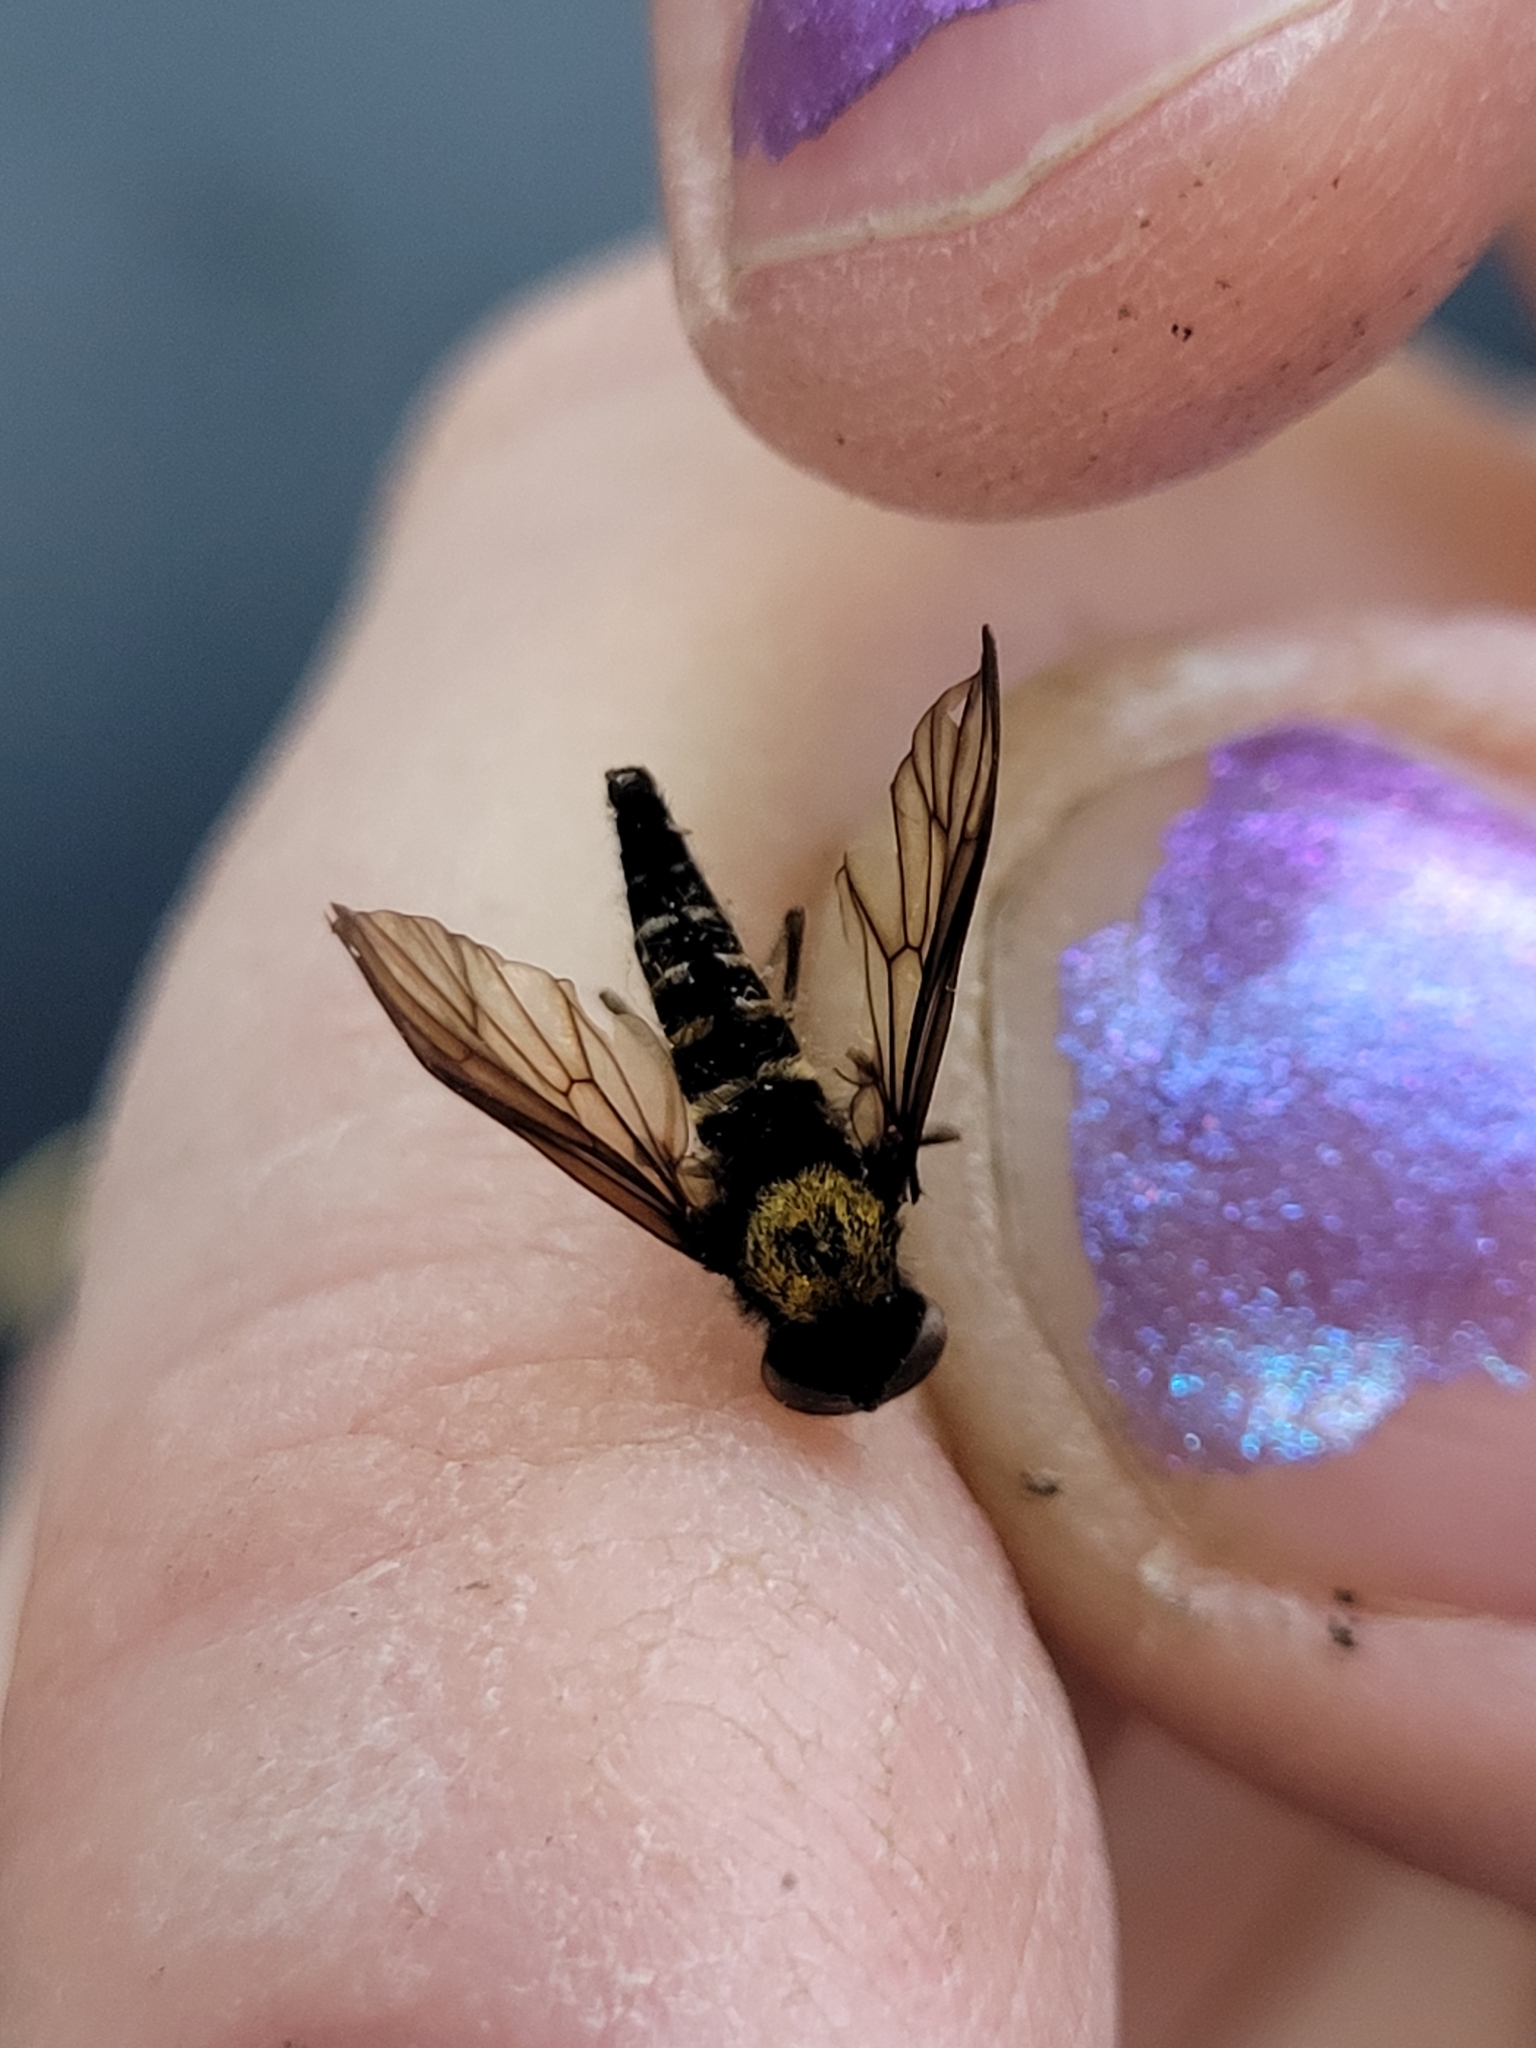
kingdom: Animalia
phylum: Arthropoda
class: Insecta
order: Diptera
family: Rhagionidae
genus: Chrysopilus
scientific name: Chrysopilus thoracicus
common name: Golden-backed snipe fly
